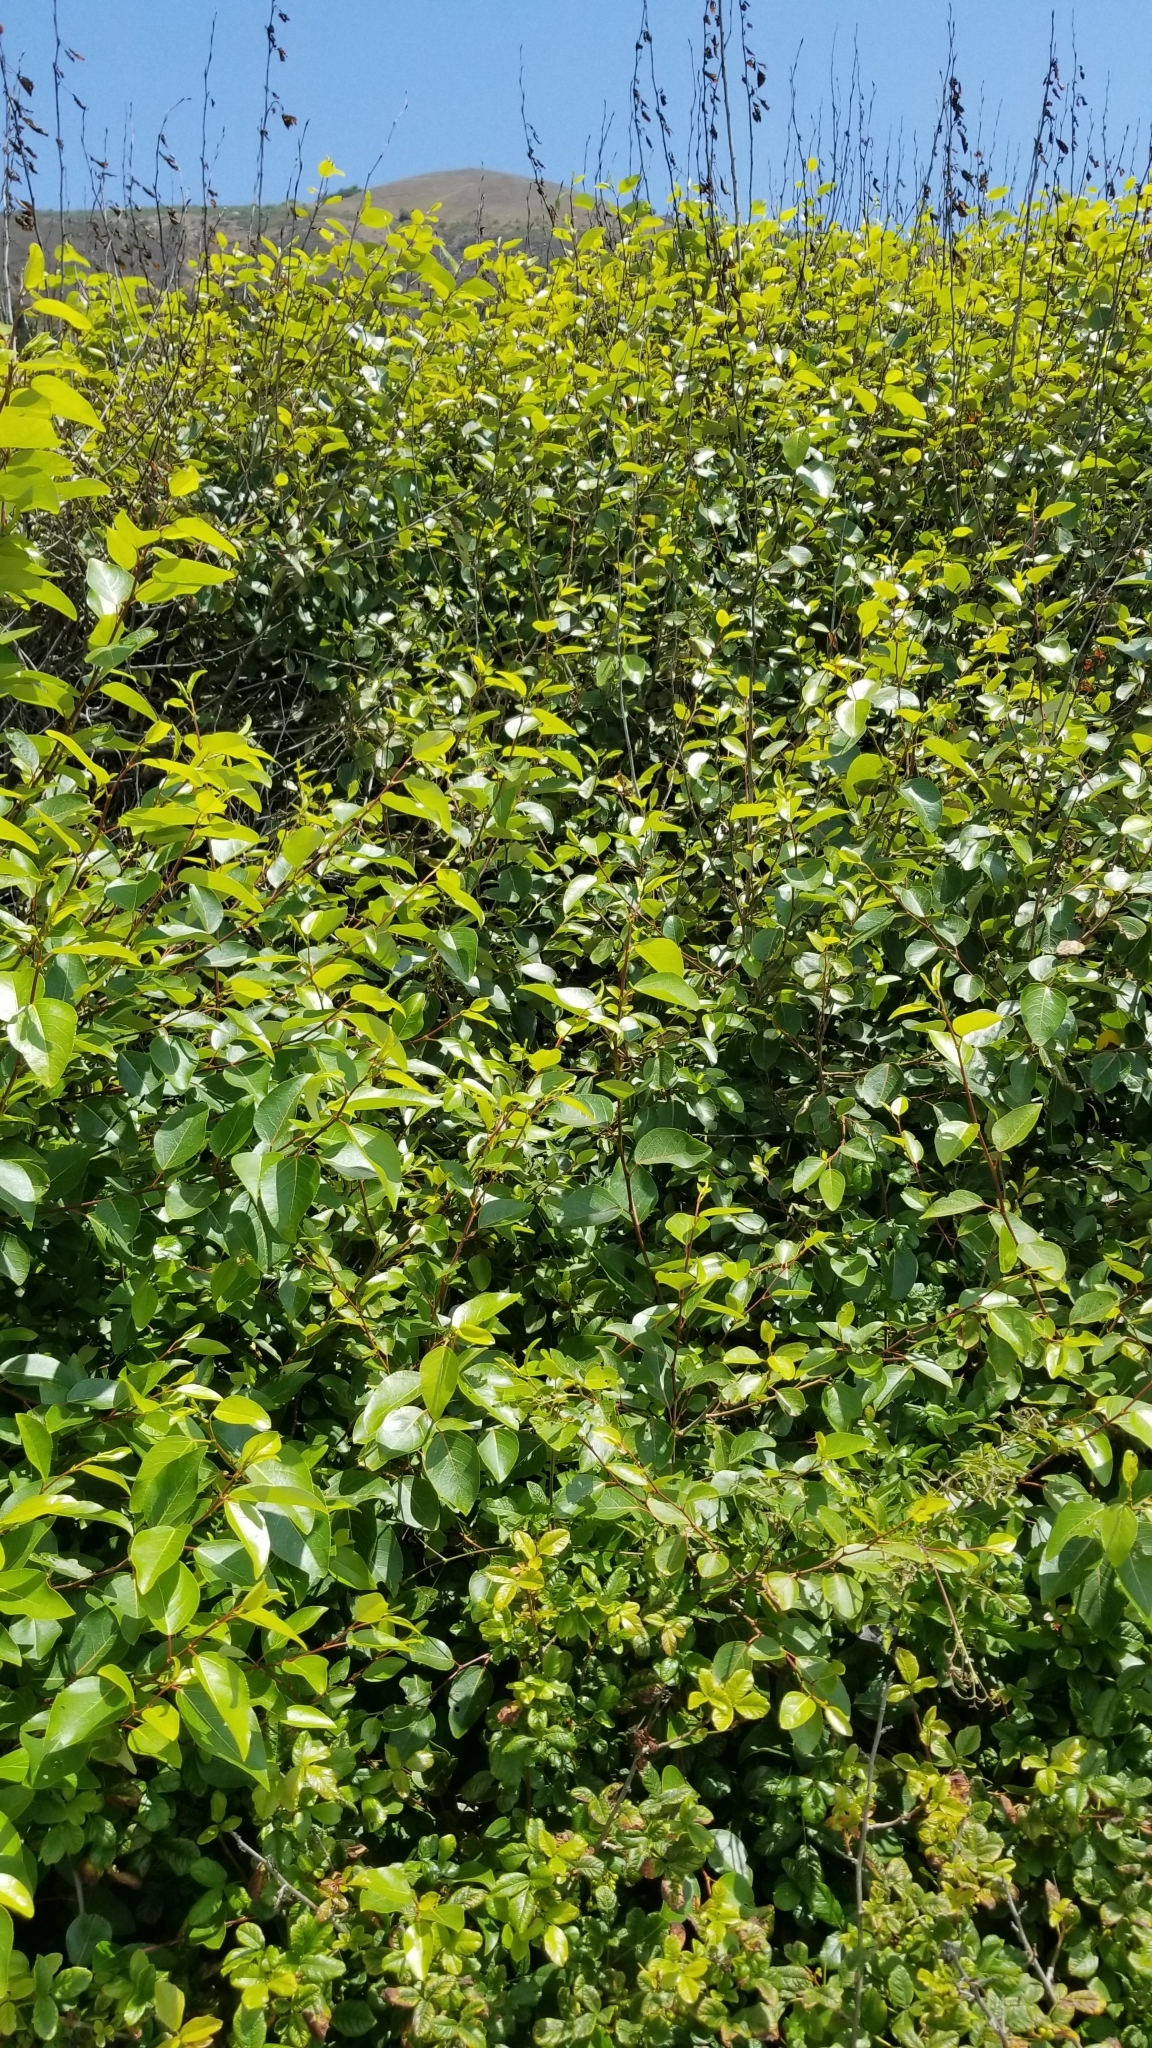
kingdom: Plantae
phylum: Tracheophyta
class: Magnoliopsida
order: Malpighiales
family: Salicaceae
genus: Populus
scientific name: Populus trichocarpa
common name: Black cottonwood
